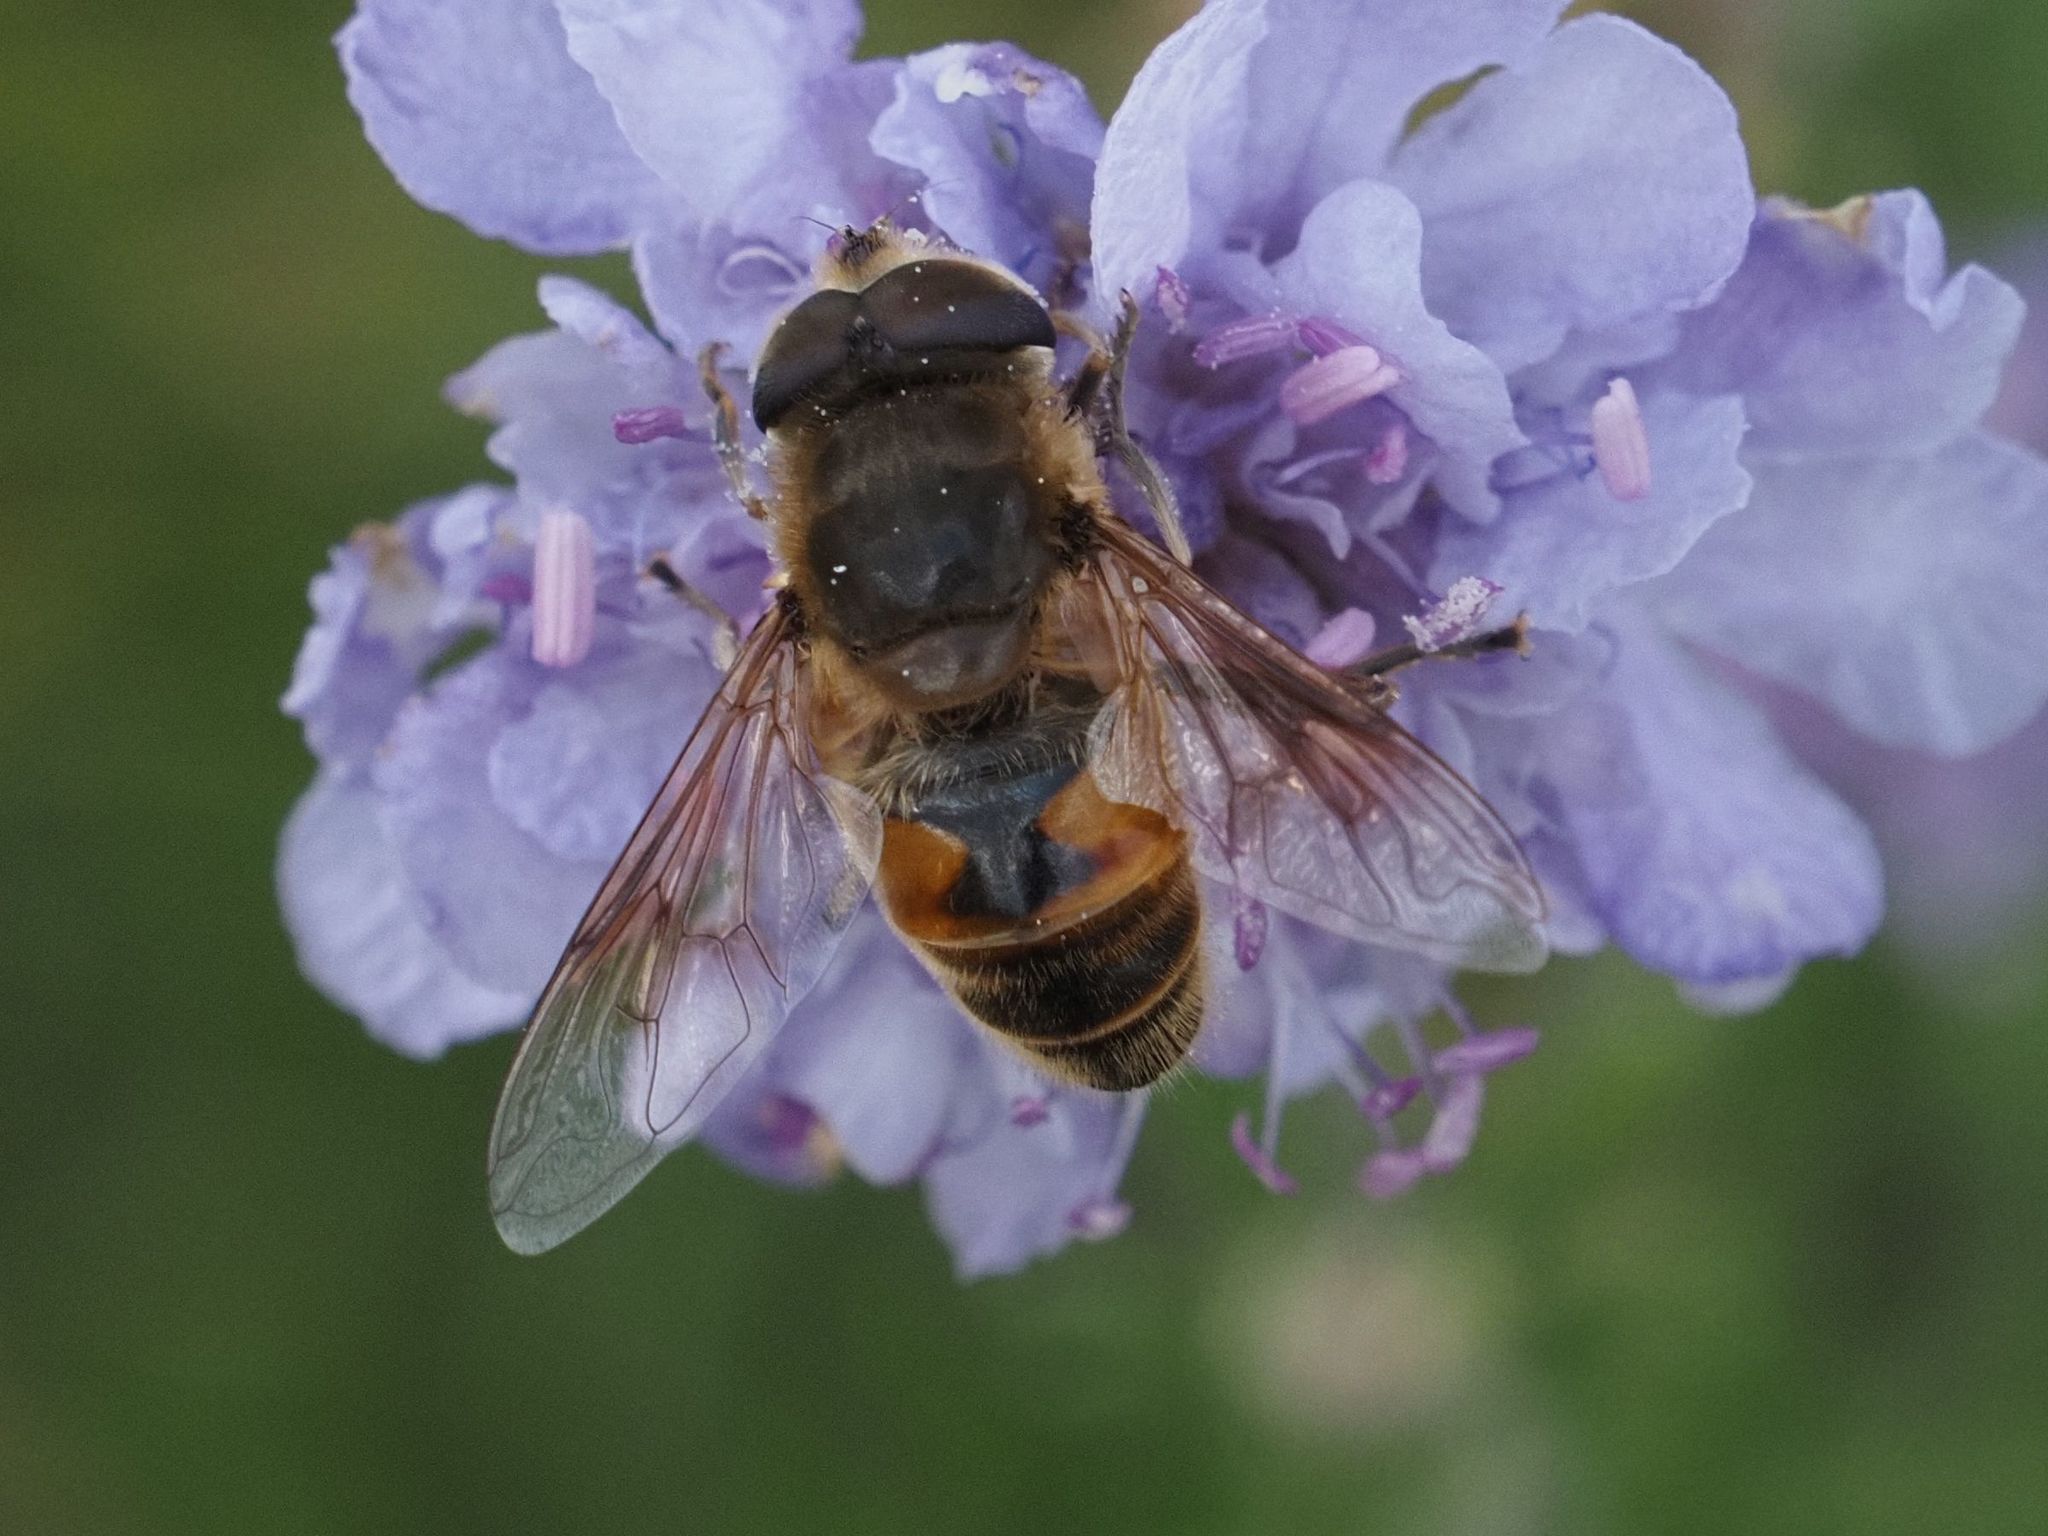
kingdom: Animalia
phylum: Arthropoda
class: Insecta
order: Diptera
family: Syrphidae
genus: Eristalis
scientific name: Eristalis tenax
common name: Drone fly
